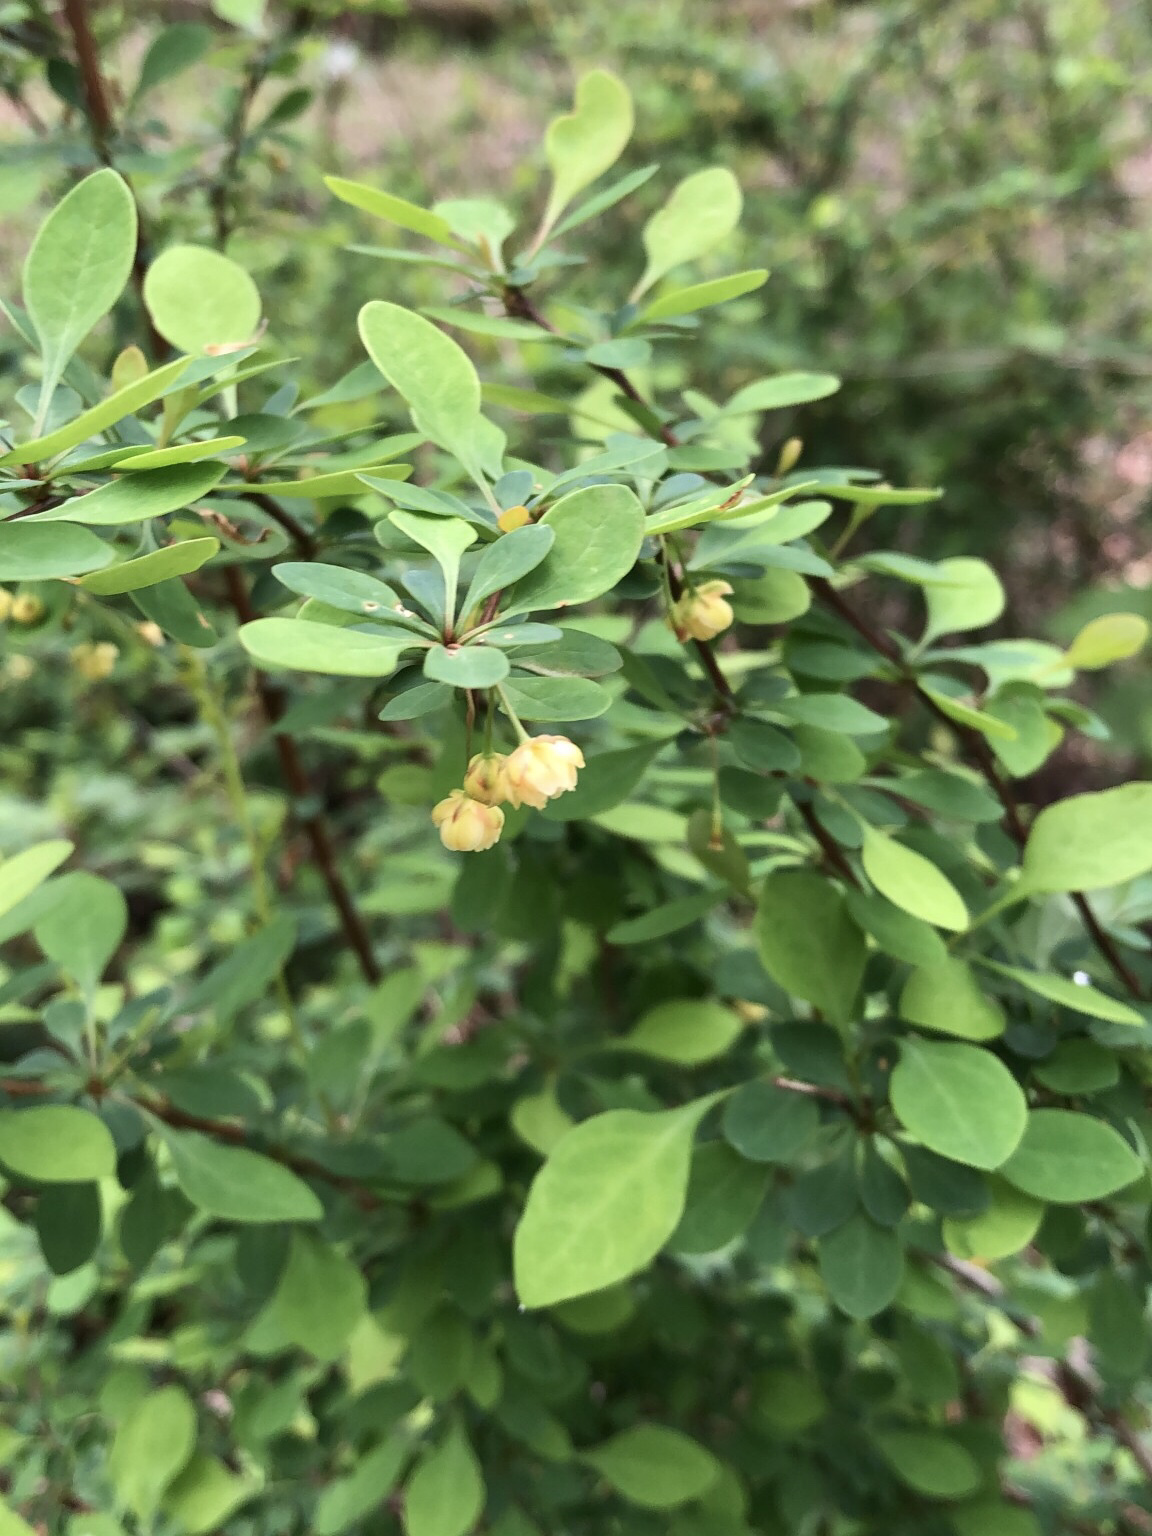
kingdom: Plantae
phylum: Tracheophyta
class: Magnoliopsida
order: Ranunculales
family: Berberidaceae
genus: Berberis
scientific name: Berberis thunbergii
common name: Japanese barberry
